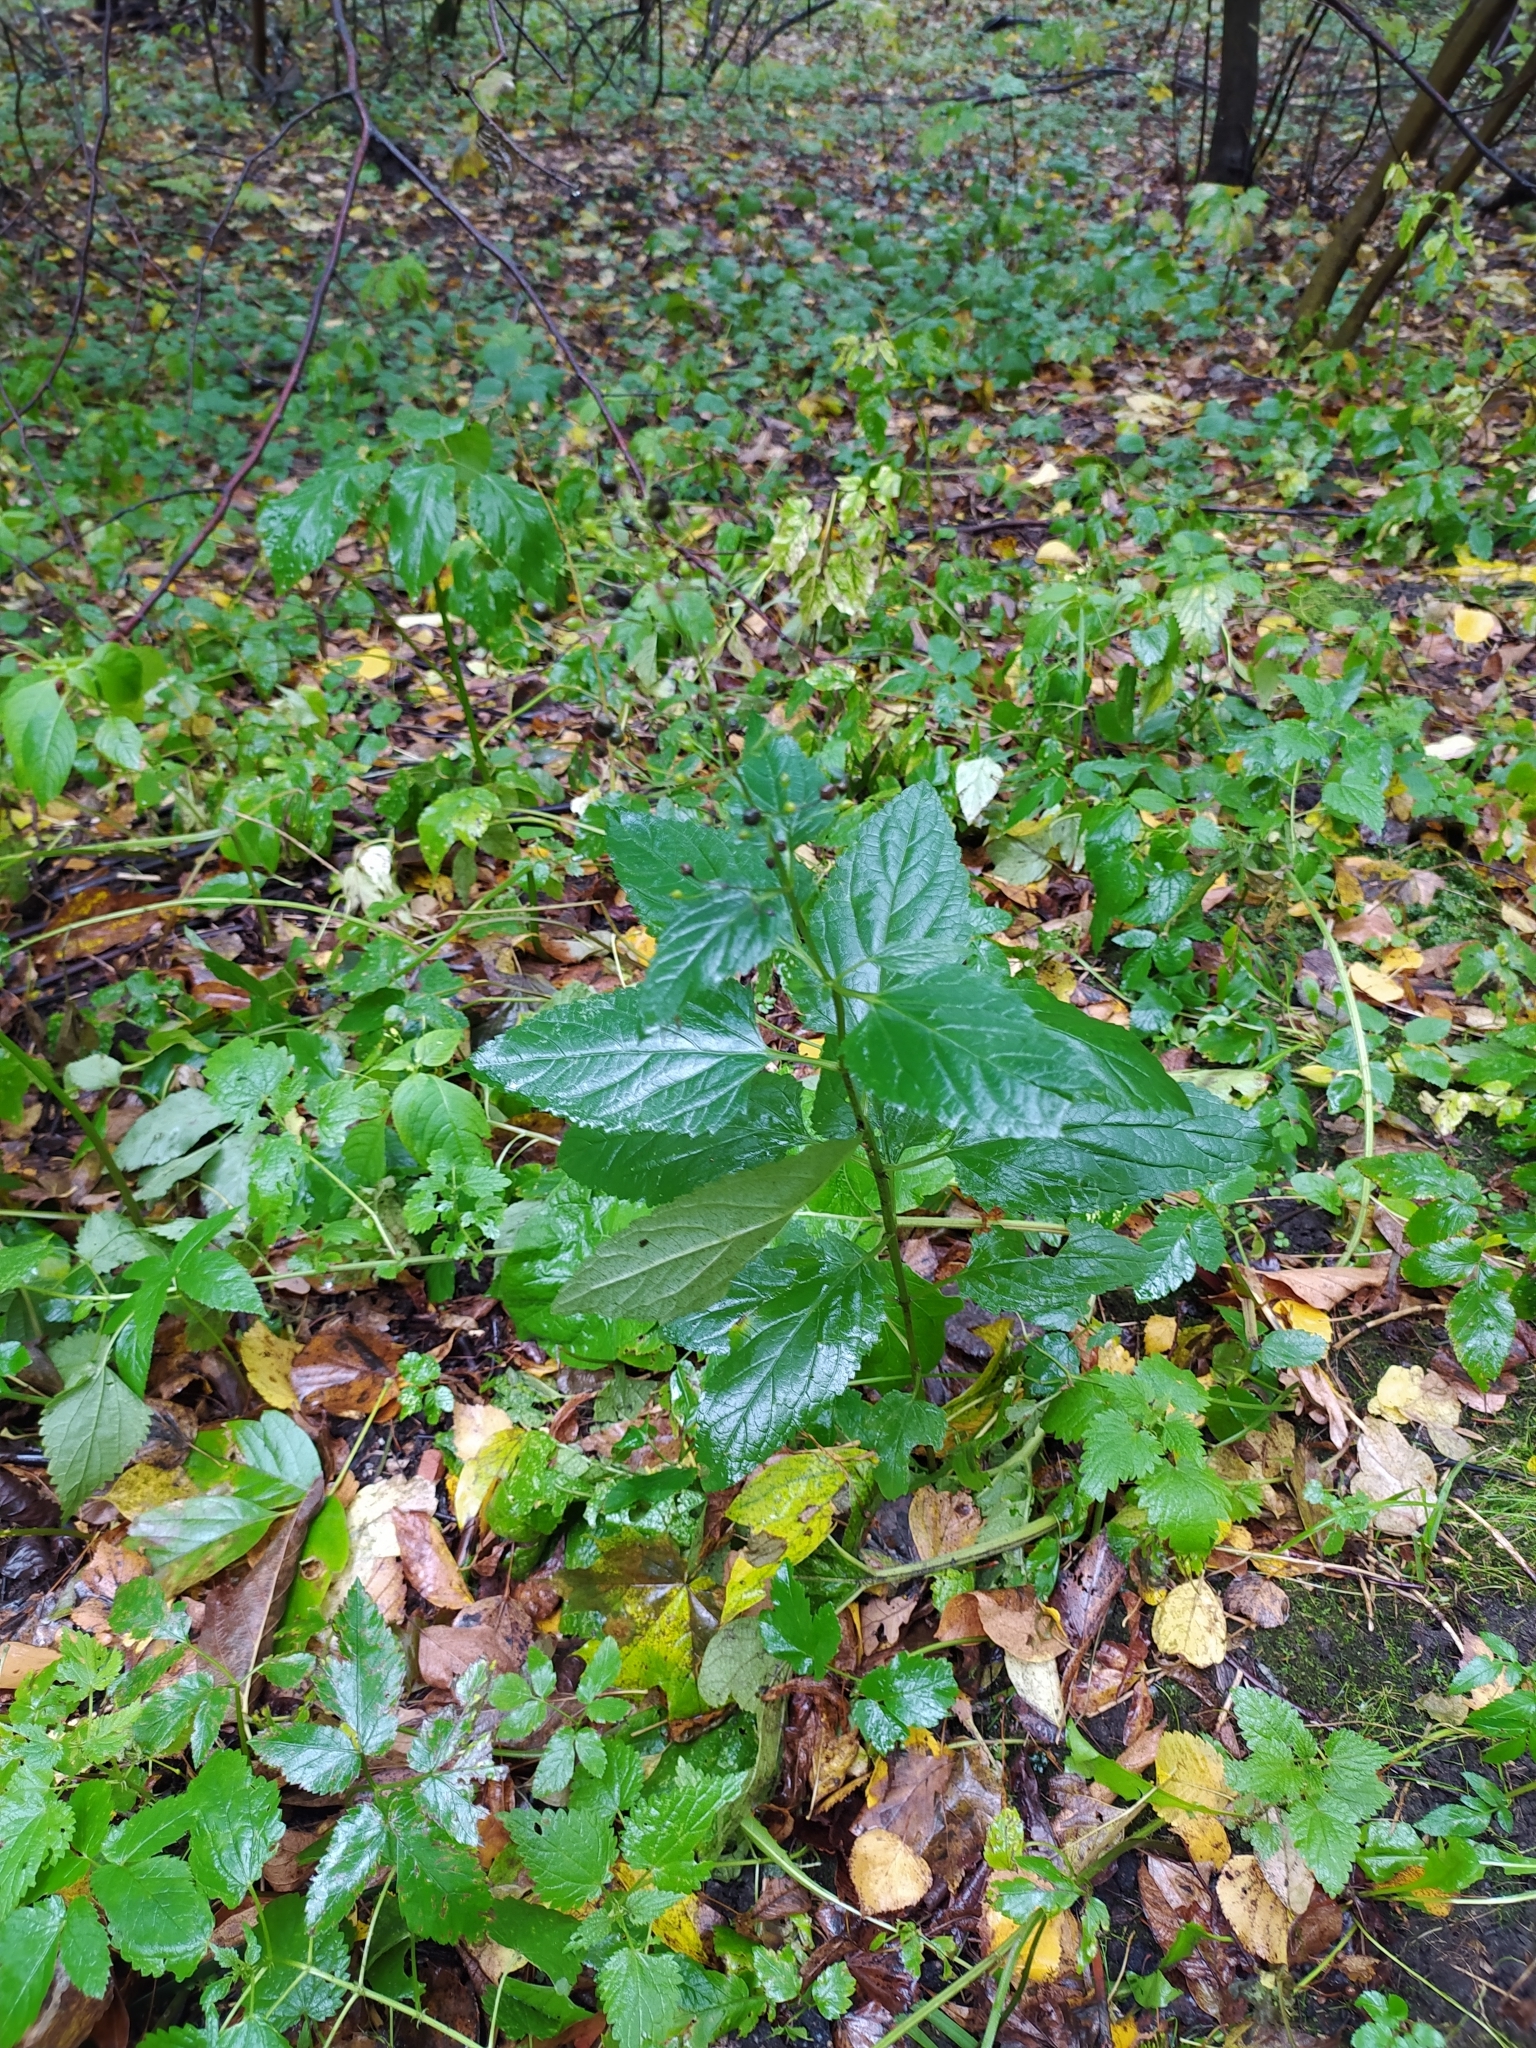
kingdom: Plantae
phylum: Tracheophyta
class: Magnoliopsida
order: Lamiales
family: Scrophulariaceae
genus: Scrophularia
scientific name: Scrophularia nodosa
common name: Common figwort
